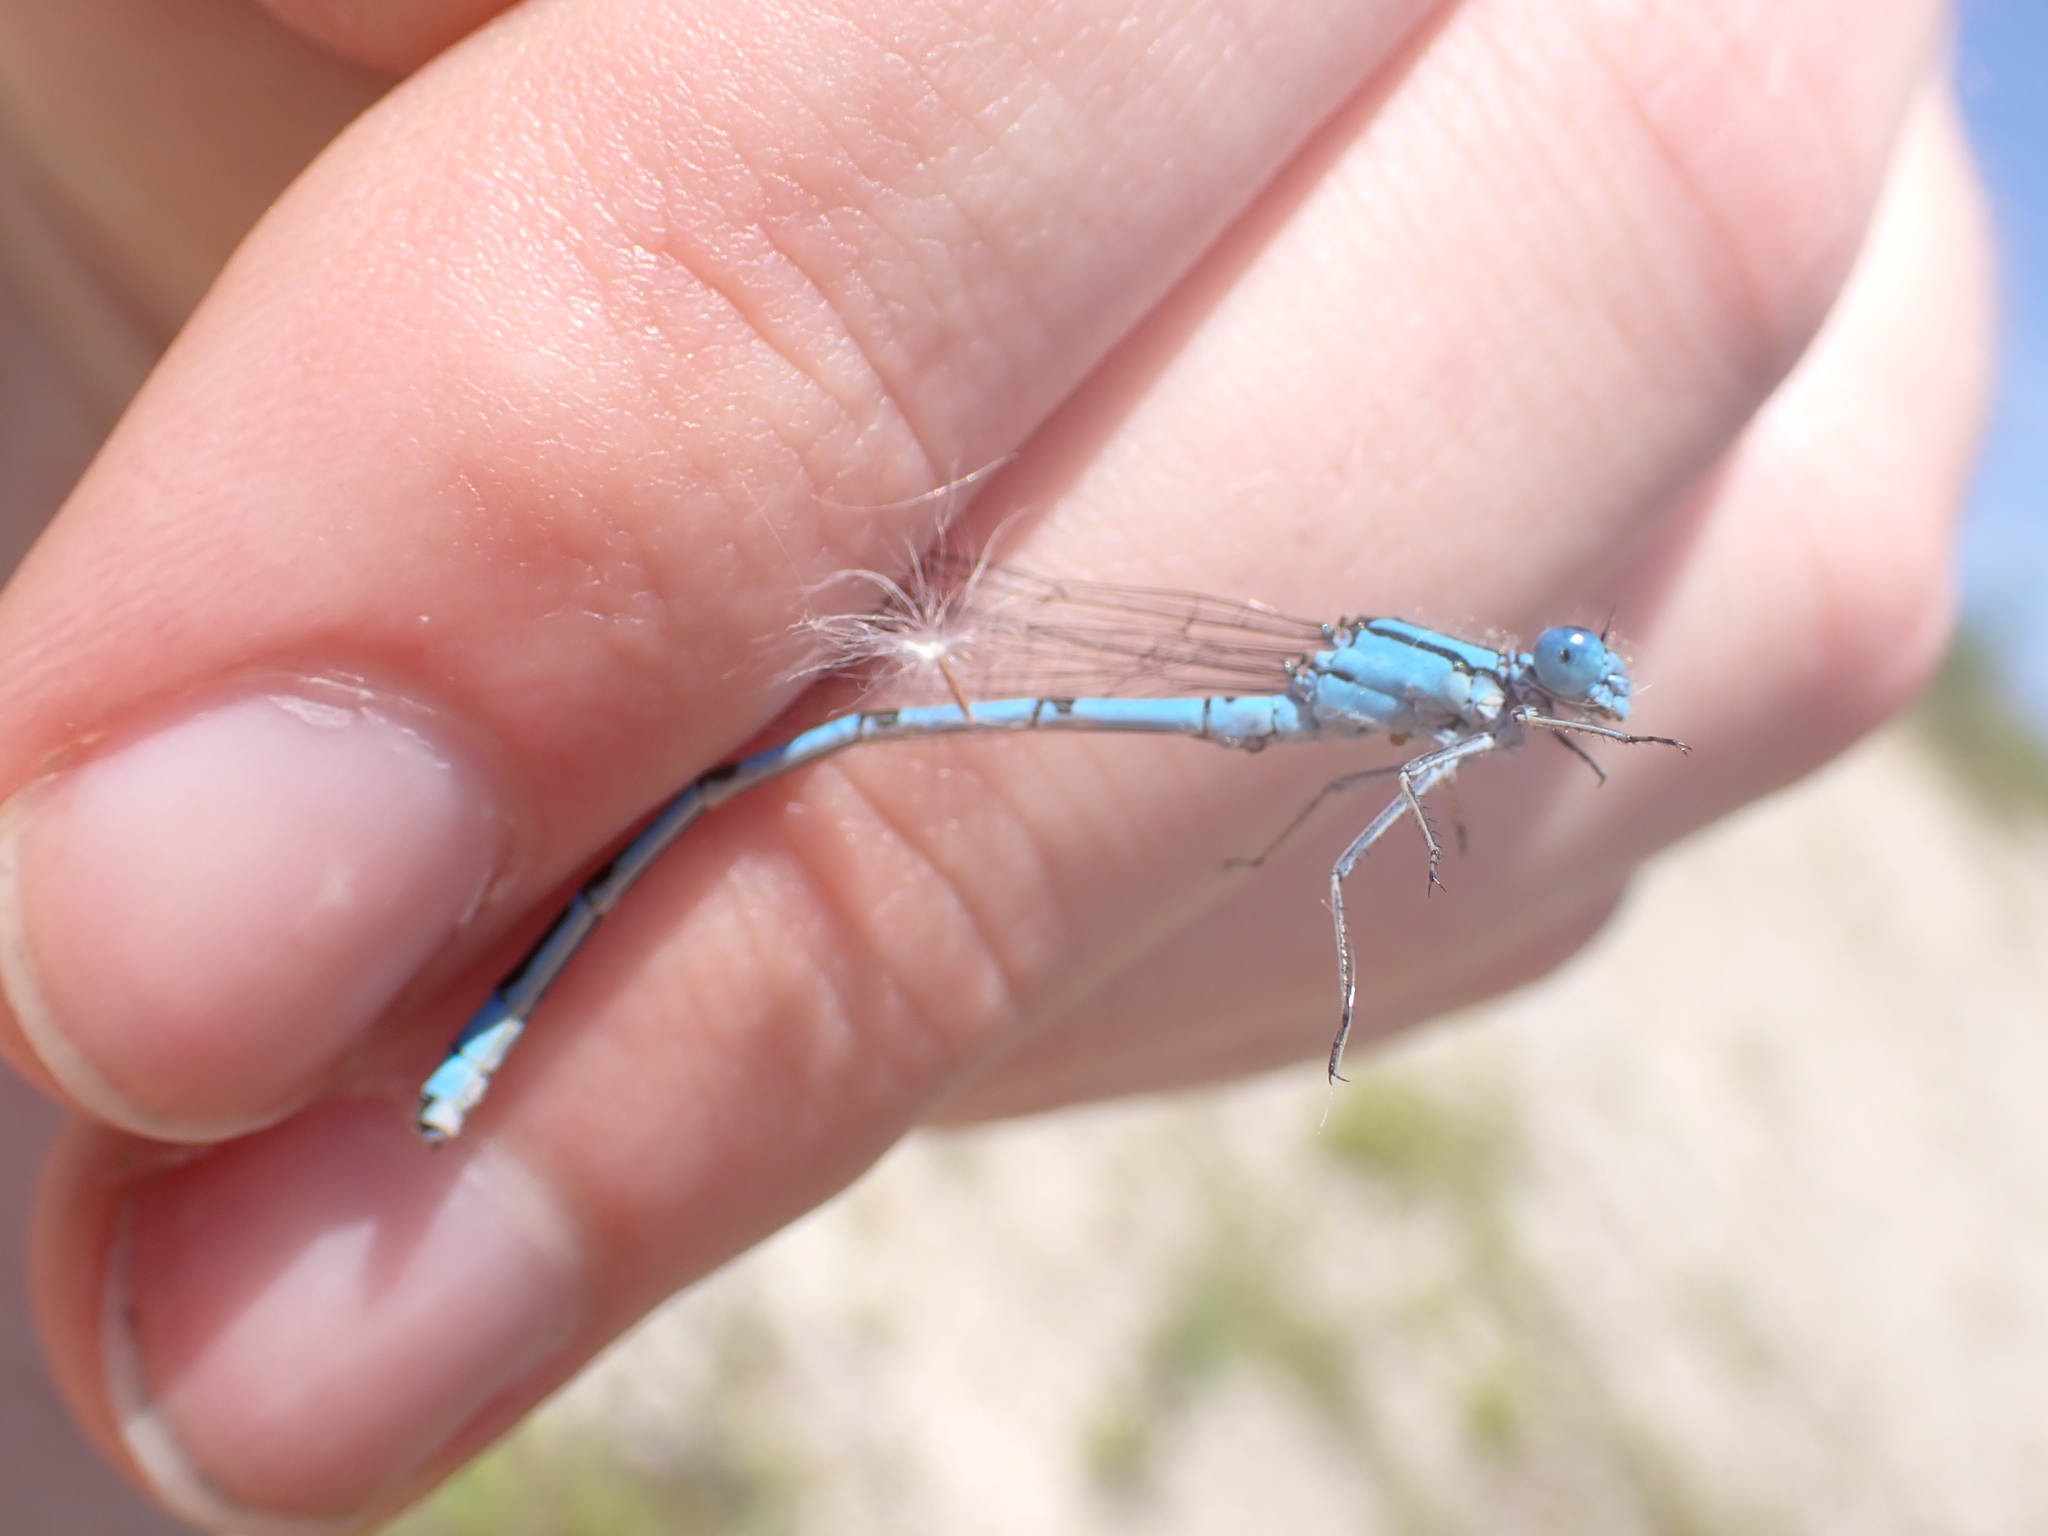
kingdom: Animalia
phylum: Arthropoda
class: Insecta
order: Odonata
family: Coenagrionidae
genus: Enallagma
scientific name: Enallagma cyathigerum
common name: Common blue damselfly
